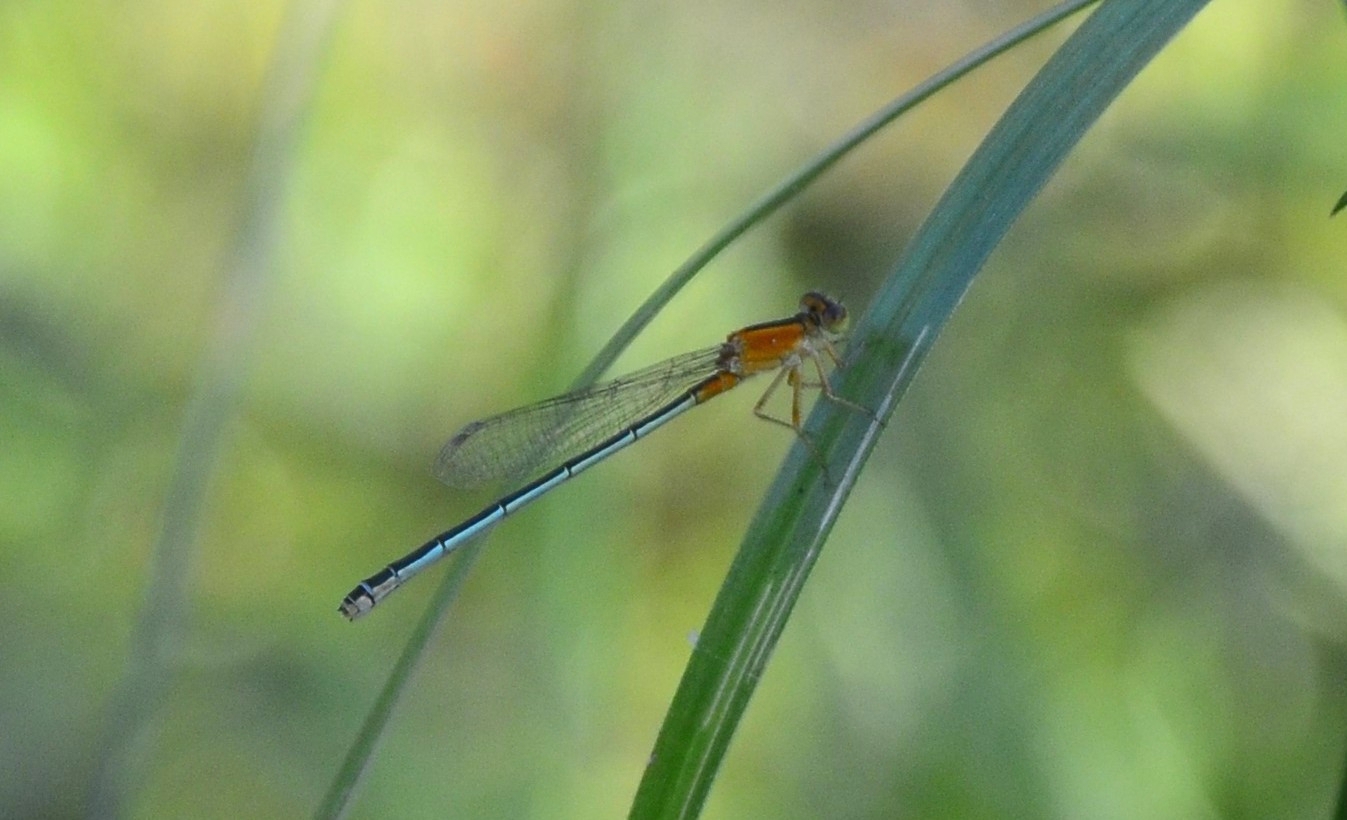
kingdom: Animalia
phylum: Arthropoda
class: Insecta
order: Odonata
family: Coenagrionidae
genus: Ischnura
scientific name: Ischnura senegalensis
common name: Tropical bluetail
